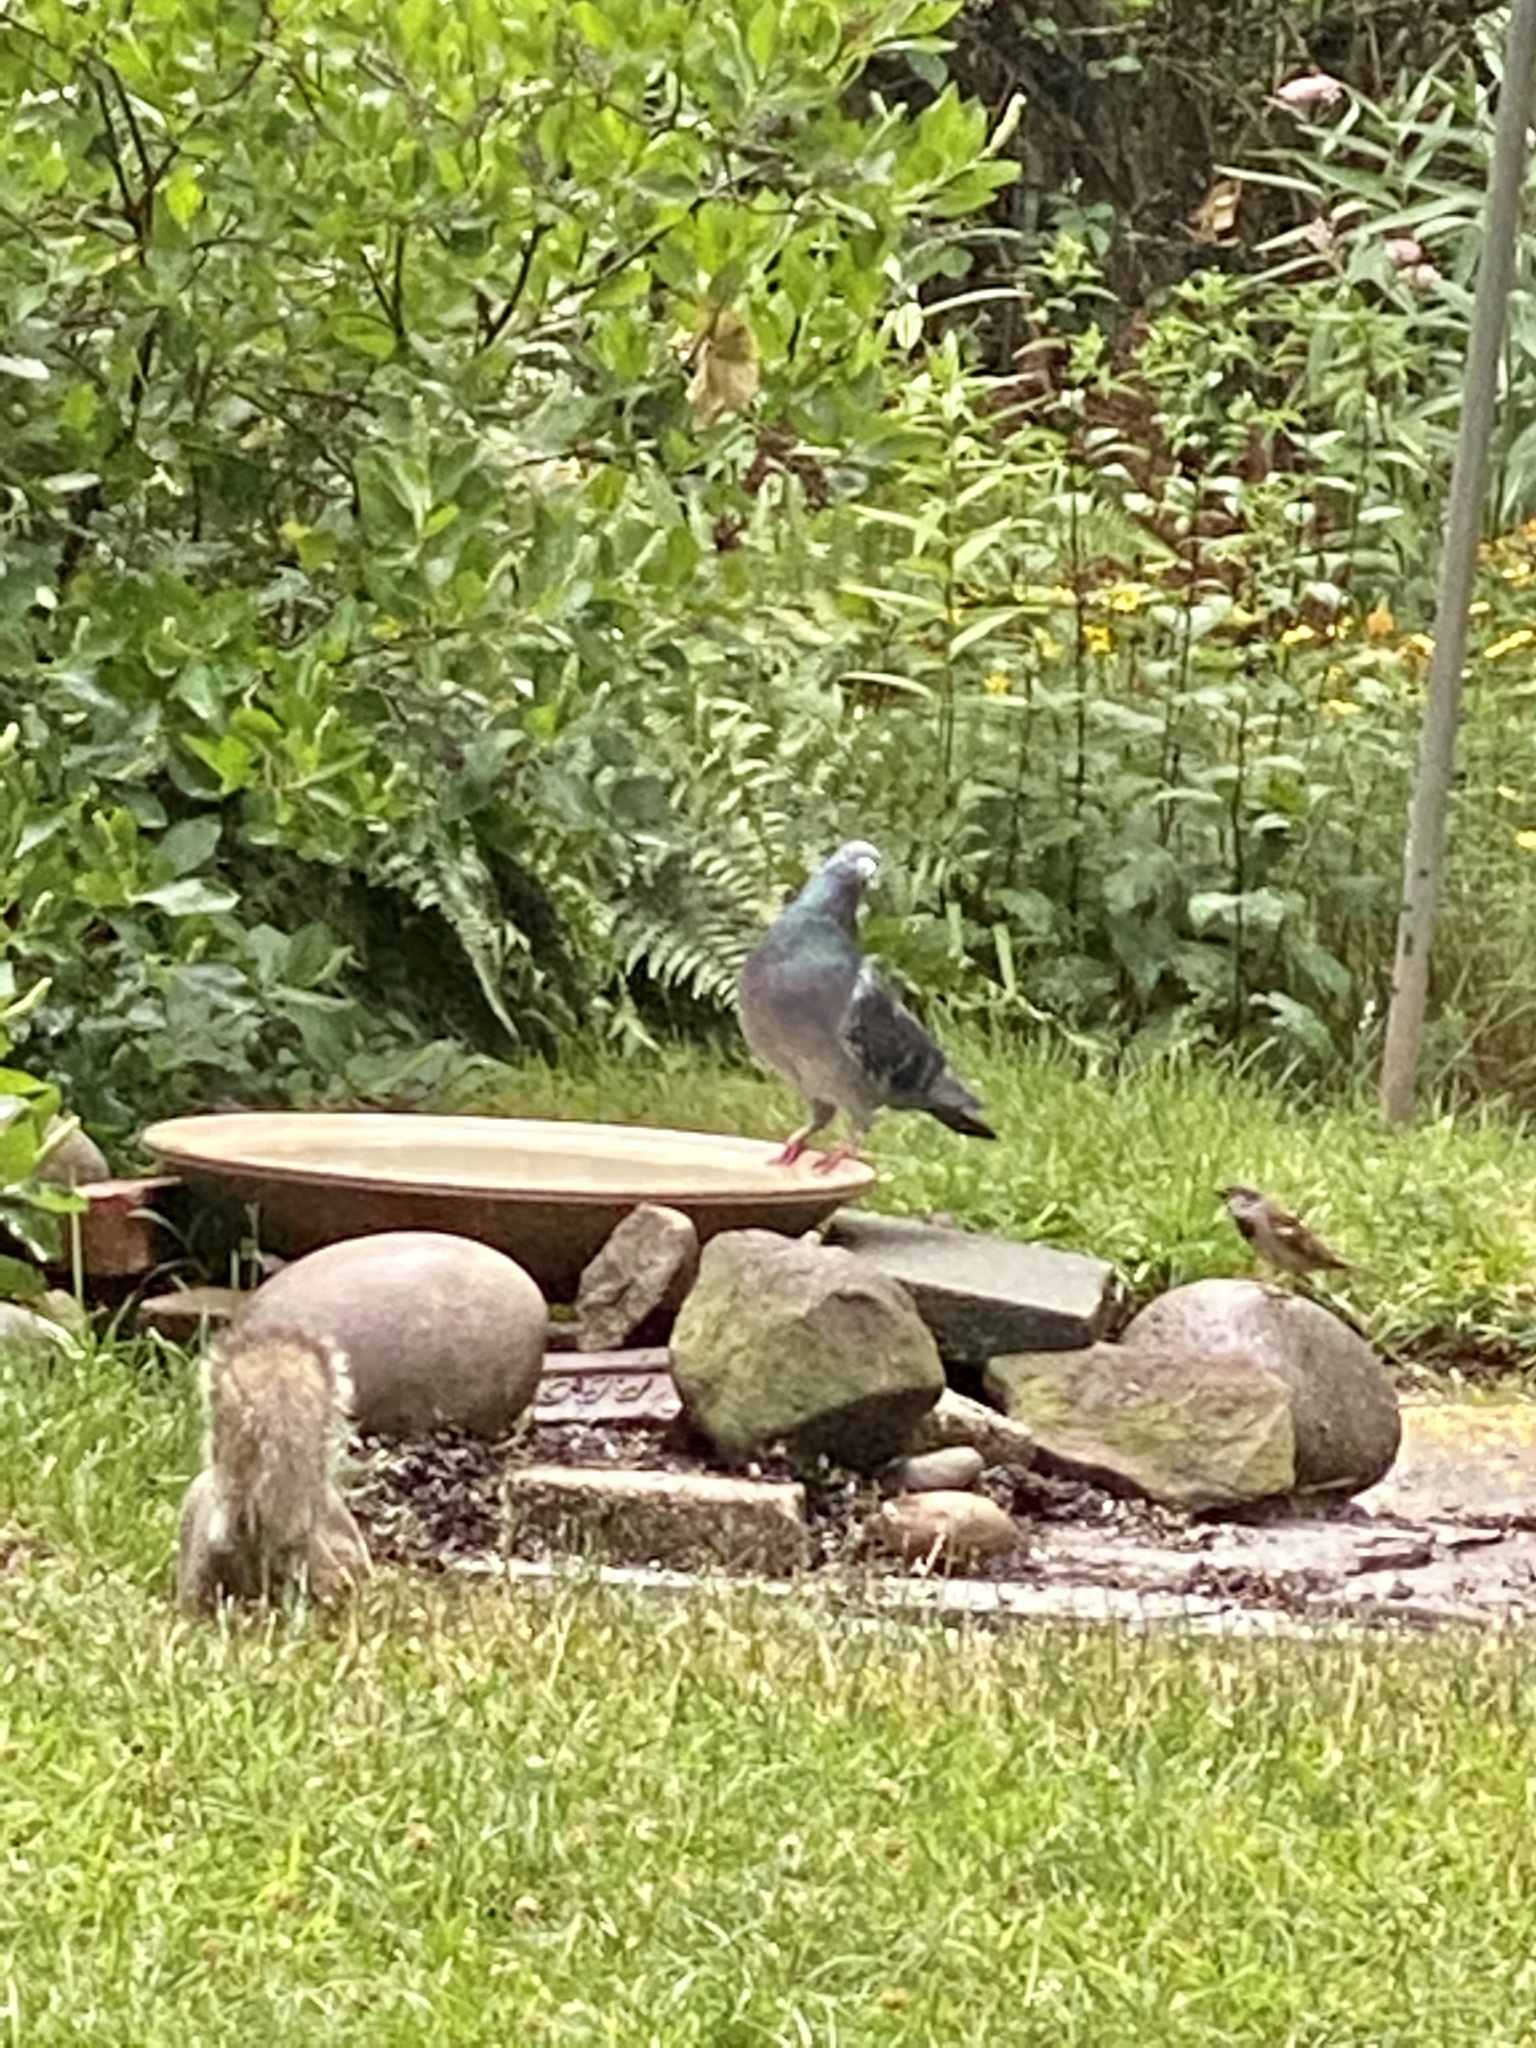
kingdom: Animalia
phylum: Chordata
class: Aves
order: Columbiformes
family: Columbidae
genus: Columba
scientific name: Columba livia
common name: Rock pigeon
